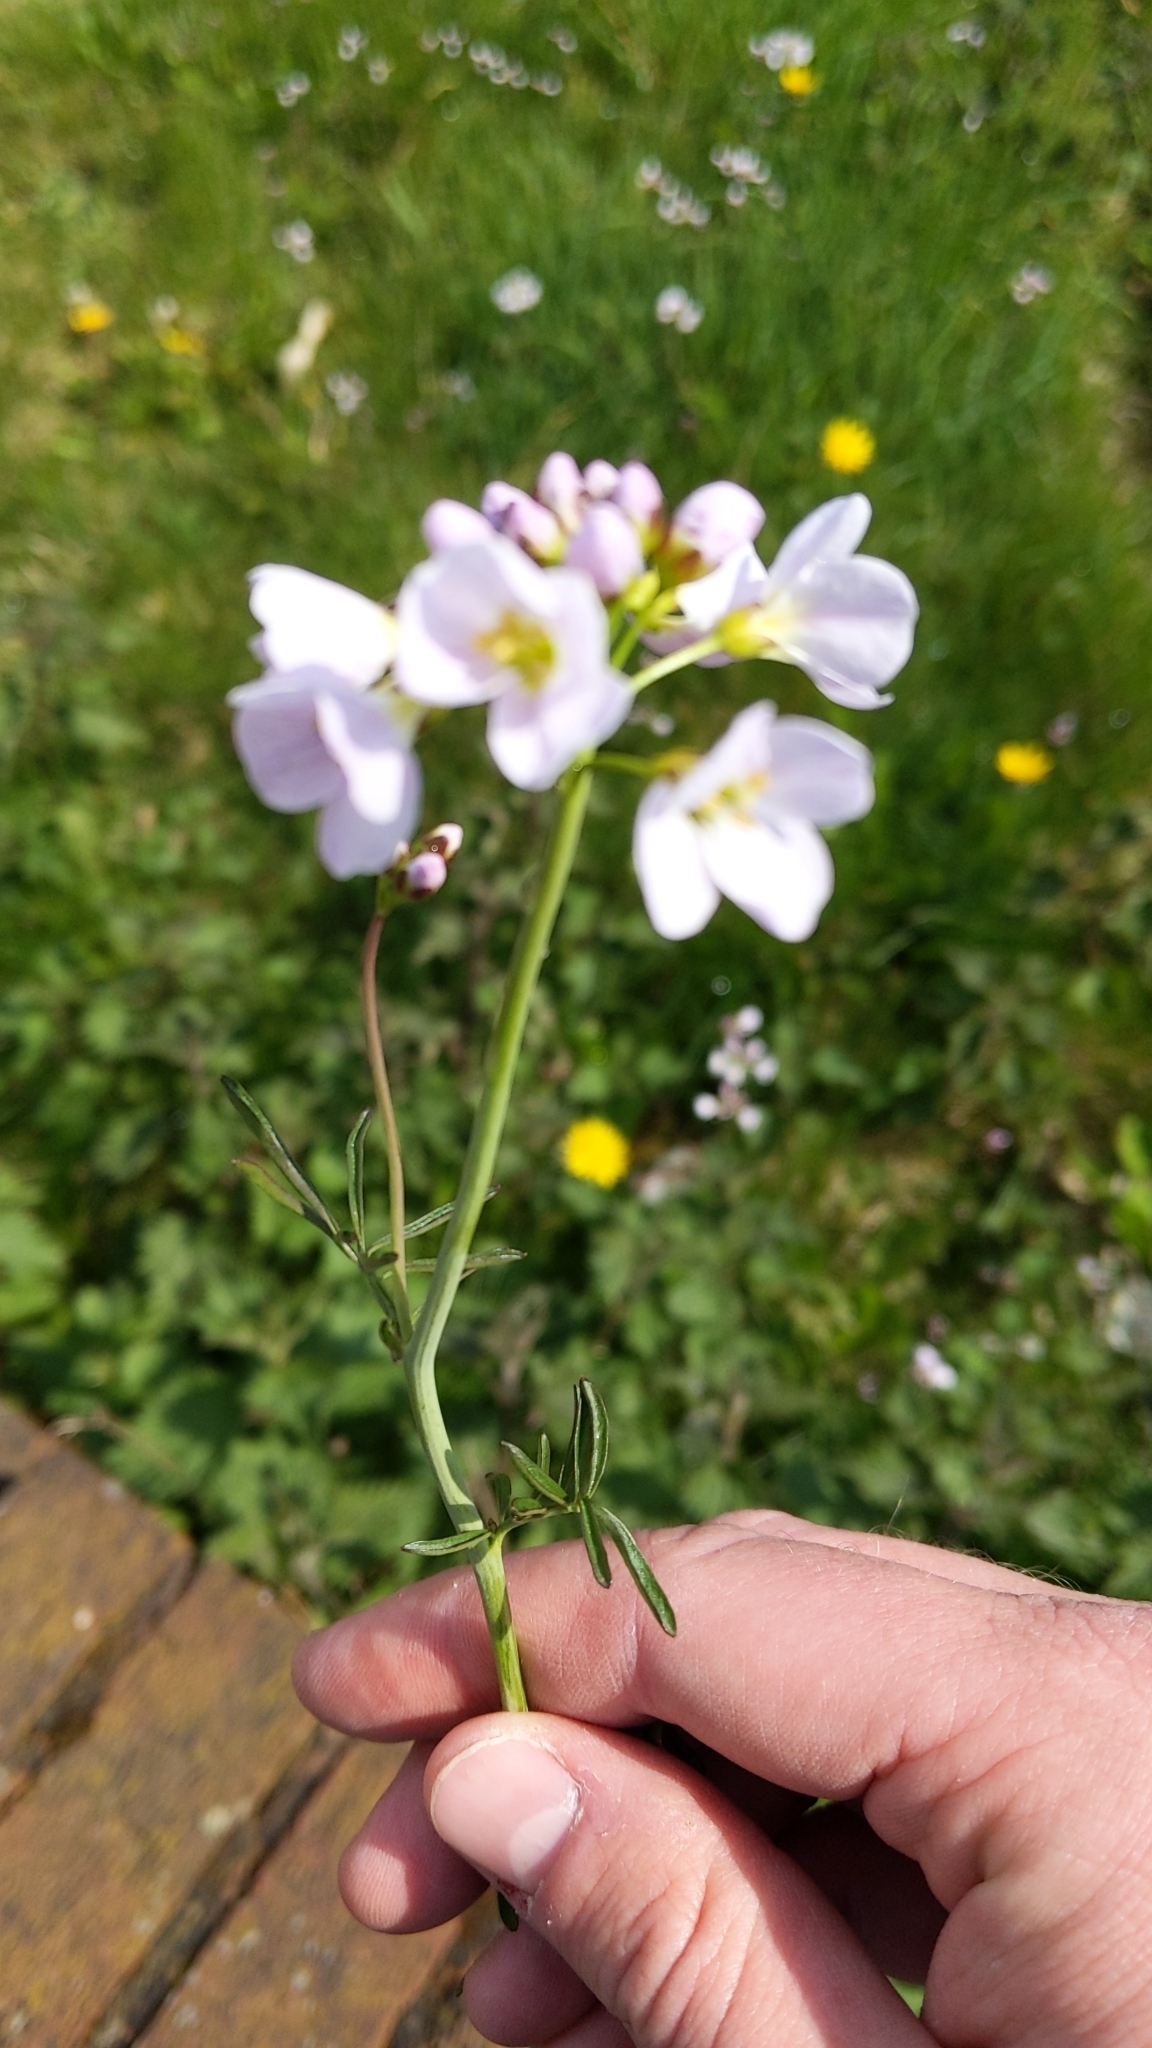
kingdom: Plantae
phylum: Tracheophyta
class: Magnoliopsida
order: Brassicales
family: Brassicaceae
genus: Cardamine
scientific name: Cardamine pratensis
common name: Cuckoo flower
